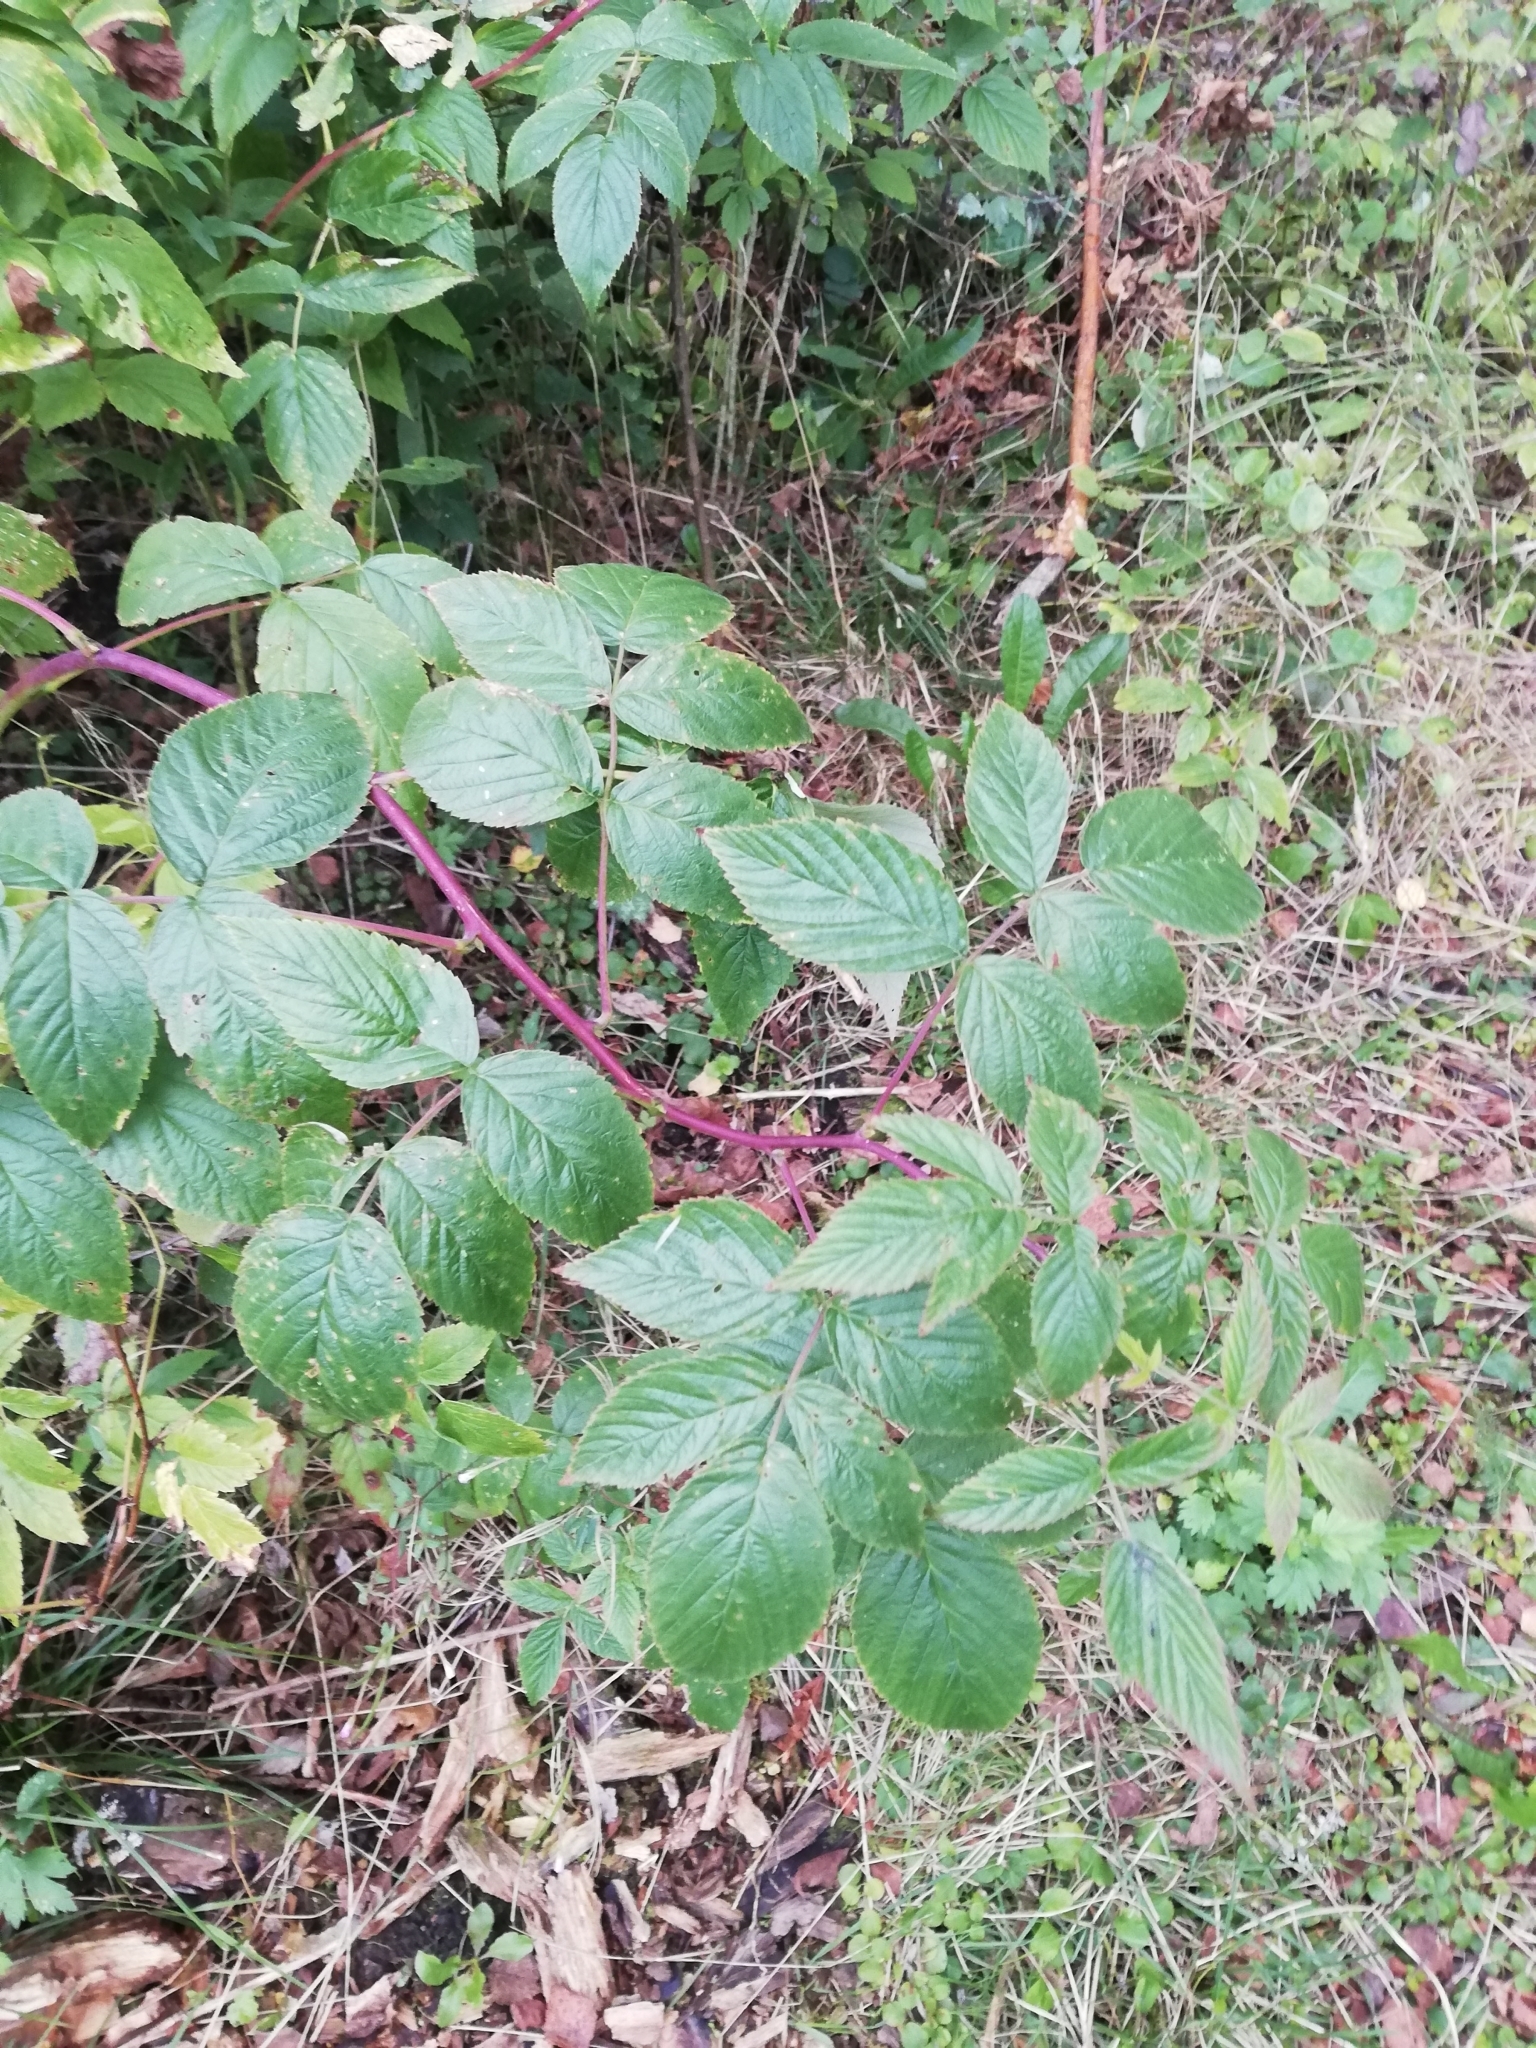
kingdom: Plantae
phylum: Tracheophyta
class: Magnoliopsida
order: Rosales
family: Rosaceae
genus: Rubus
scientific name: Rubus idaeus
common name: Raspberry
